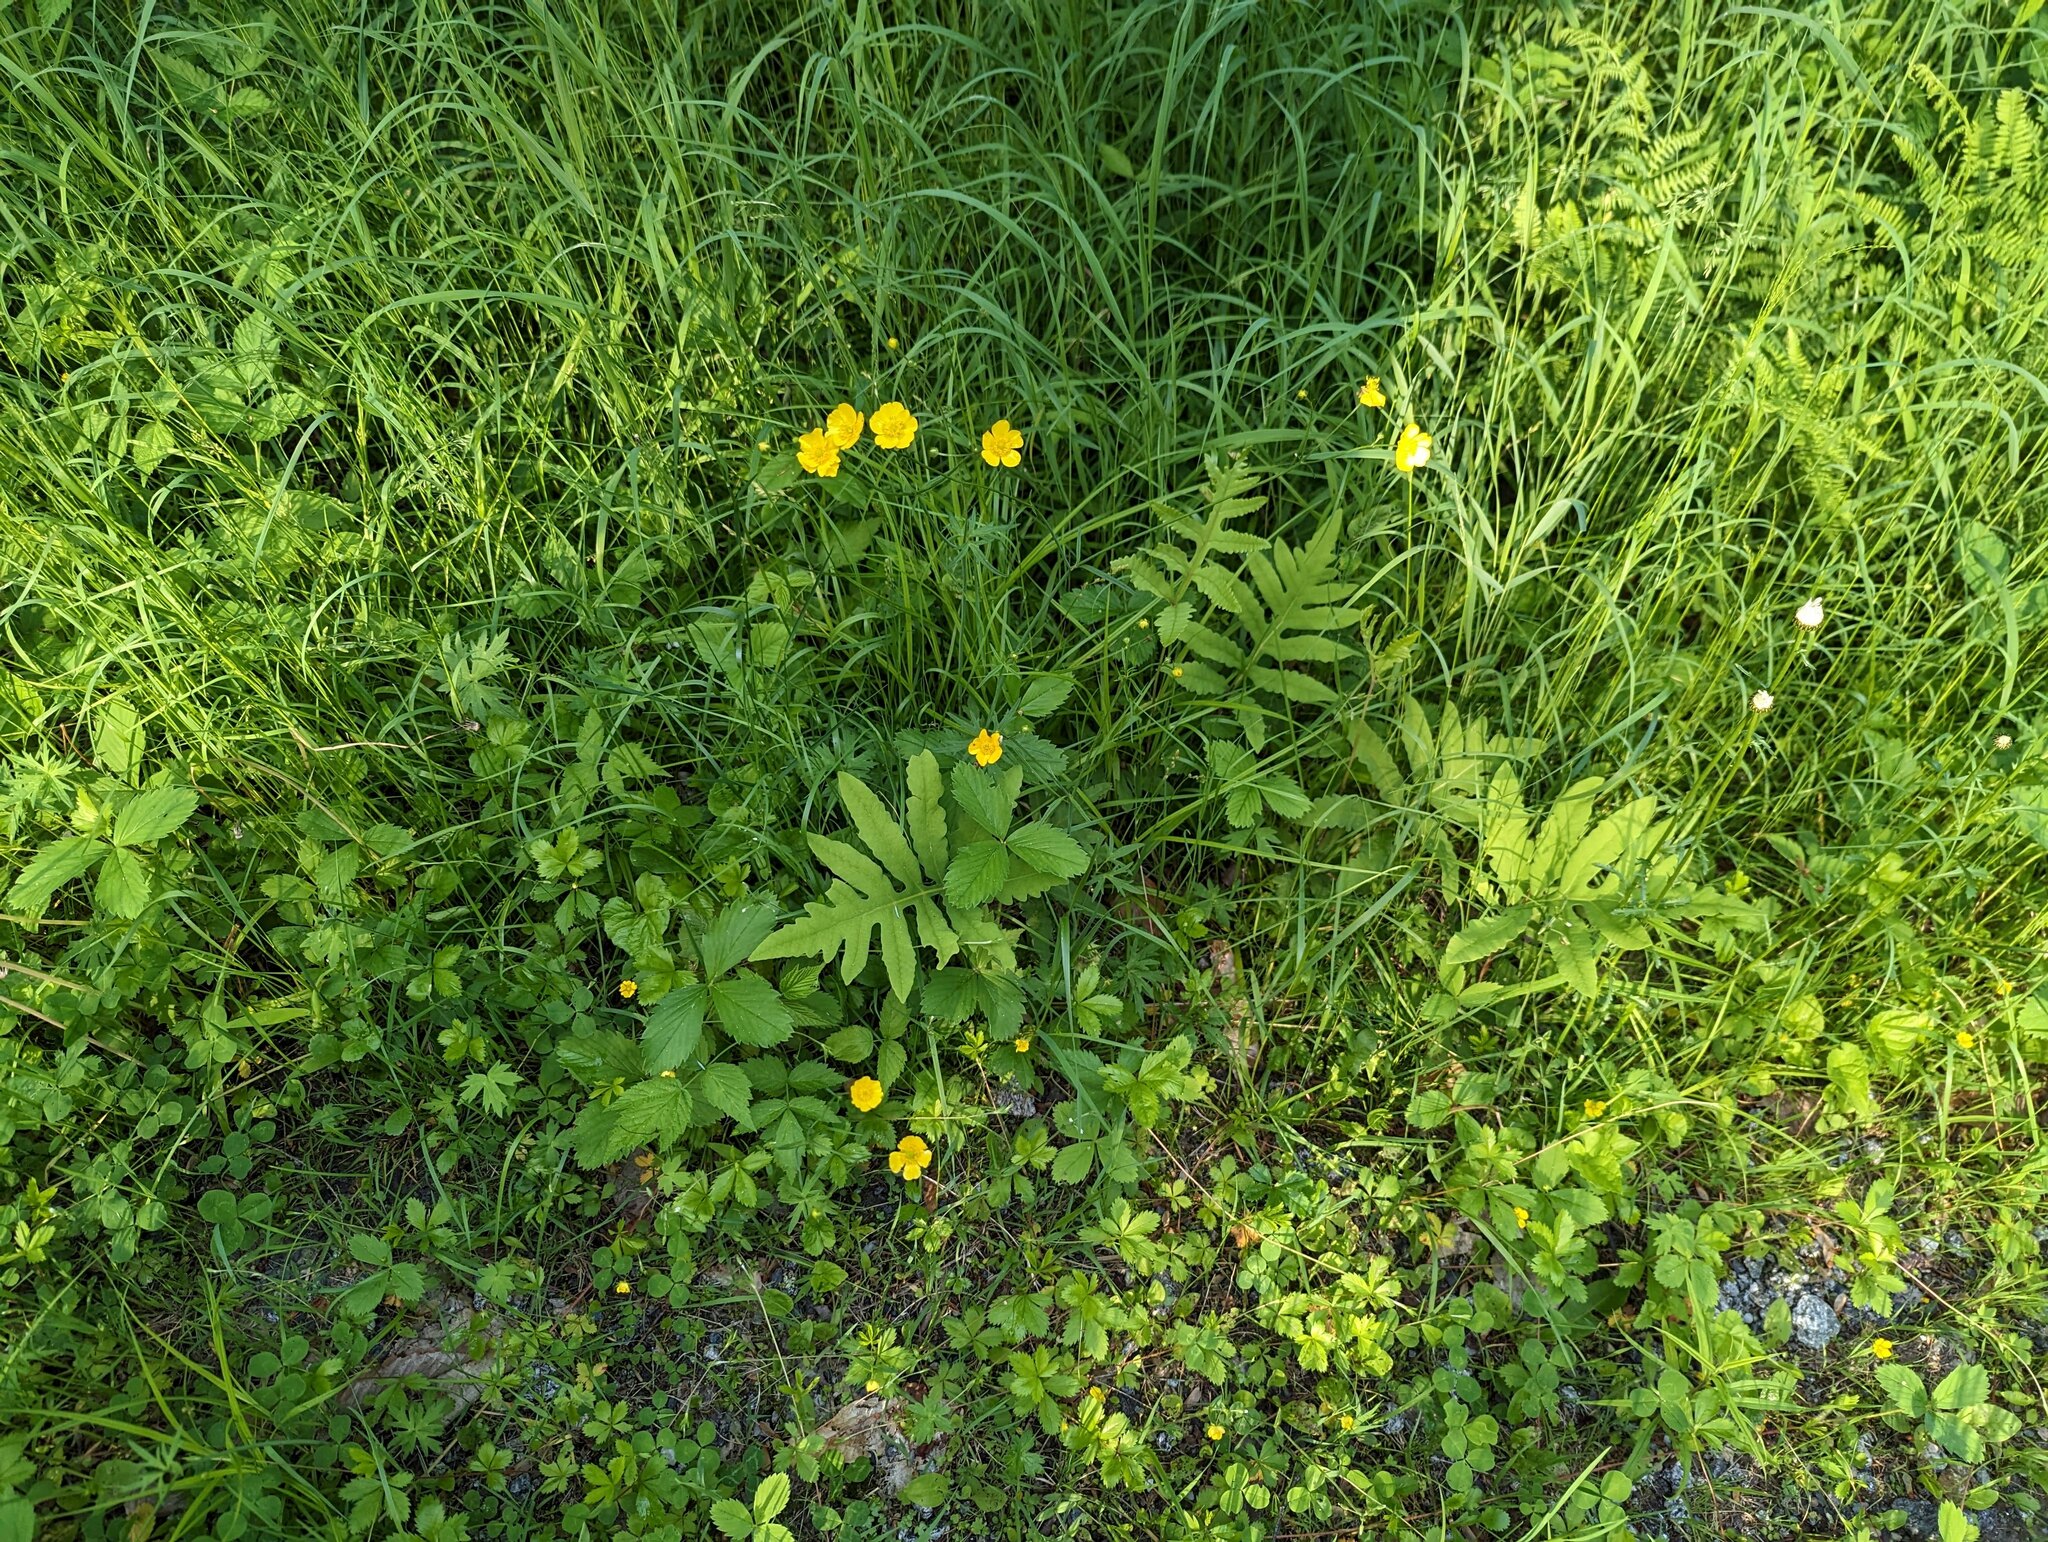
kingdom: Plantae
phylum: Tracheophyta
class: Polypodiopsida
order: Polypodiales
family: Onocleaceae
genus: Onoclea
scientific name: Onoclea sensibilis
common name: Sensitive fern
